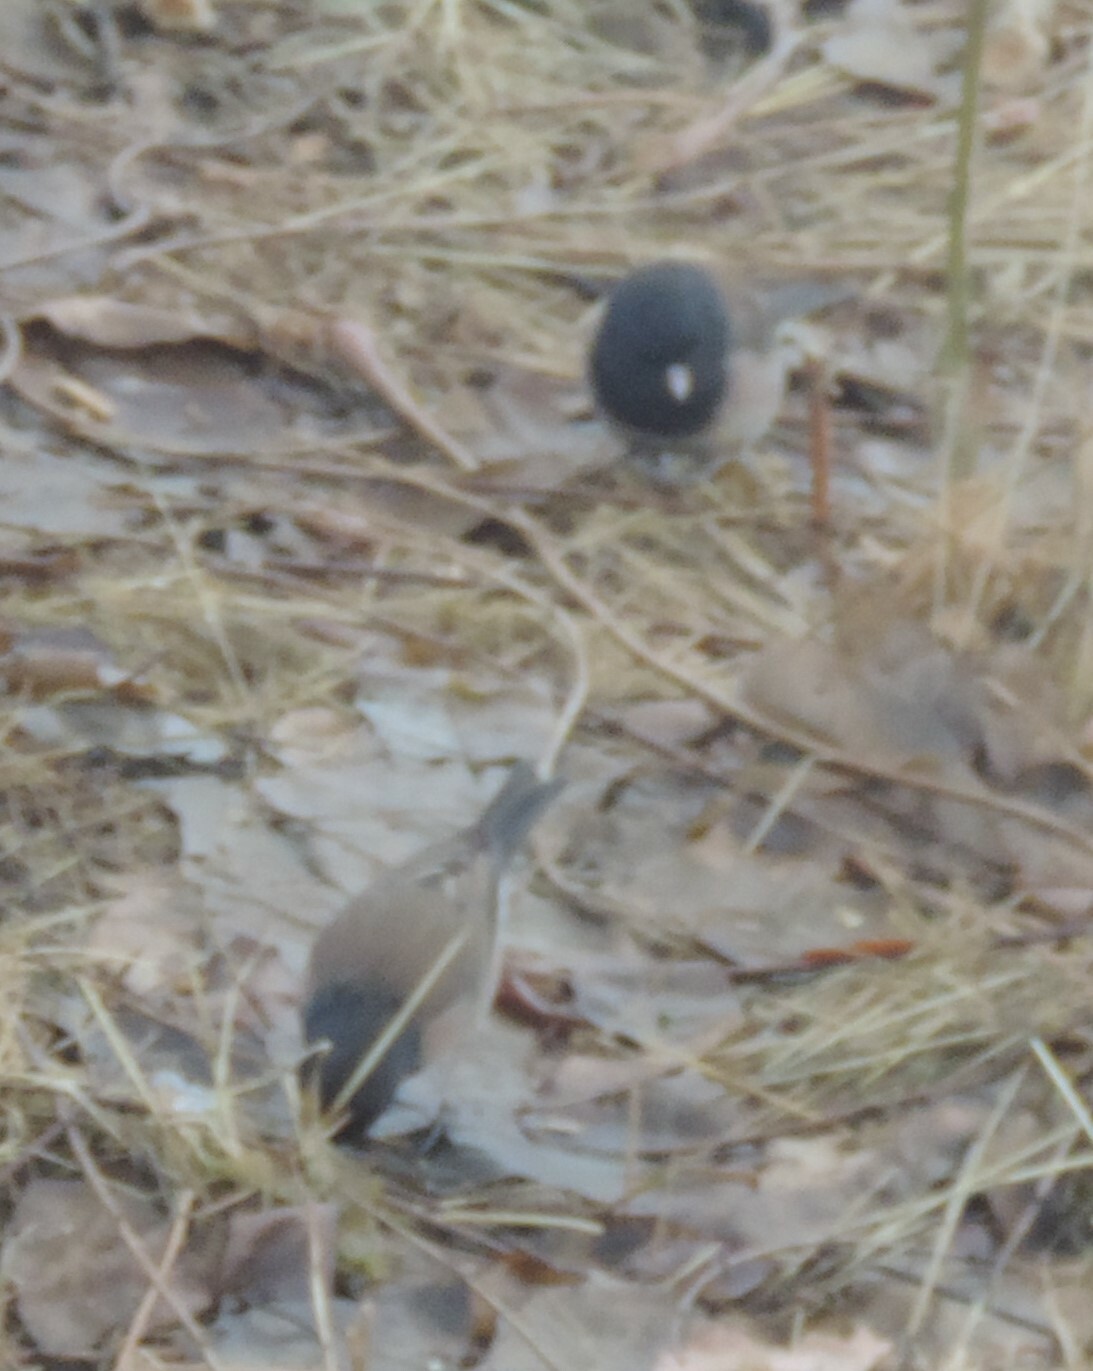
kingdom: Animalia
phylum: Chordata
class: Aves
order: Passeriformes
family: Passerellidae
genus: Junco
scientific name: Junco hyemalis
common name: Dark-eyed junco
